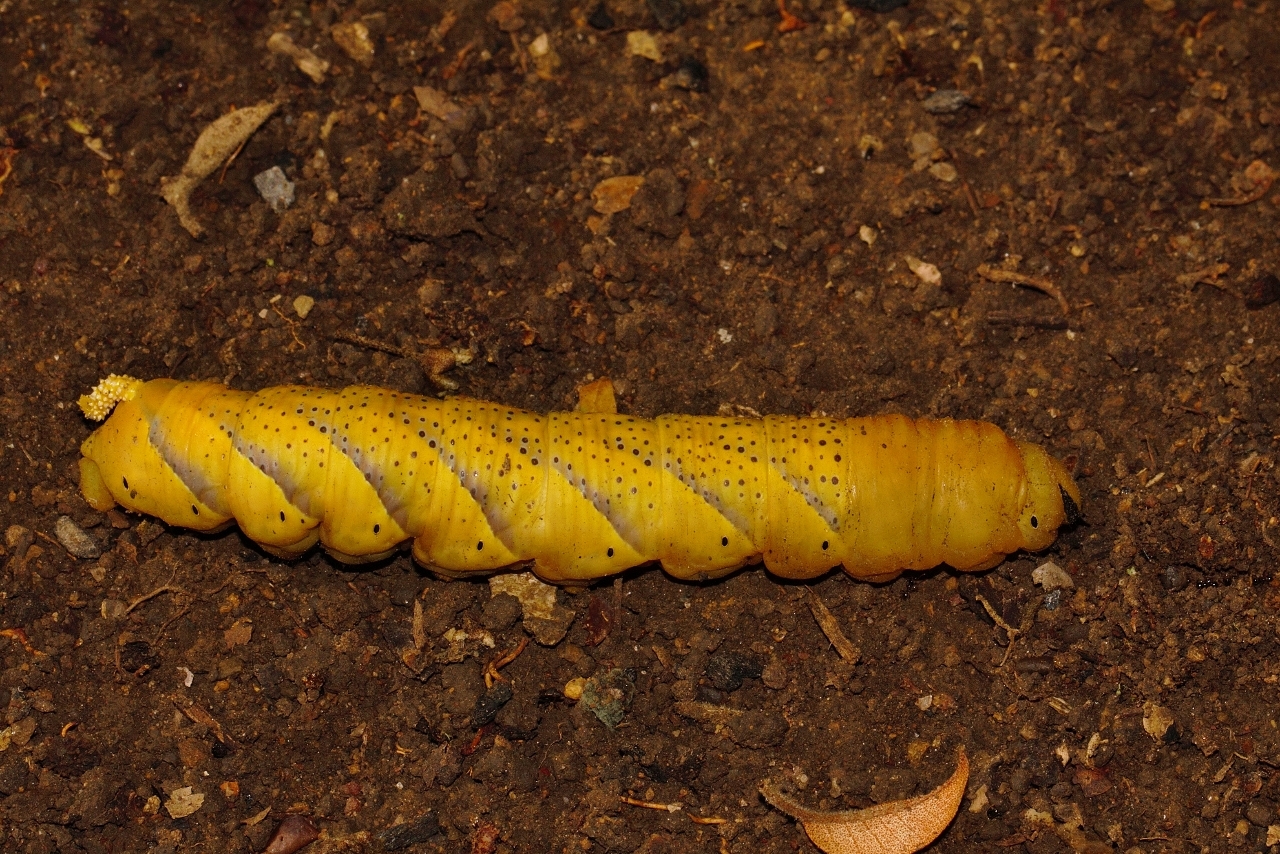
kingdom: Animalia
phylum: Arthropoda
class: Insecta
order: Lepidoptera
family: Sphingidae
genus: Acherontia
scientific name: Acherontia atropos
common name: Death's-head hawk moth
